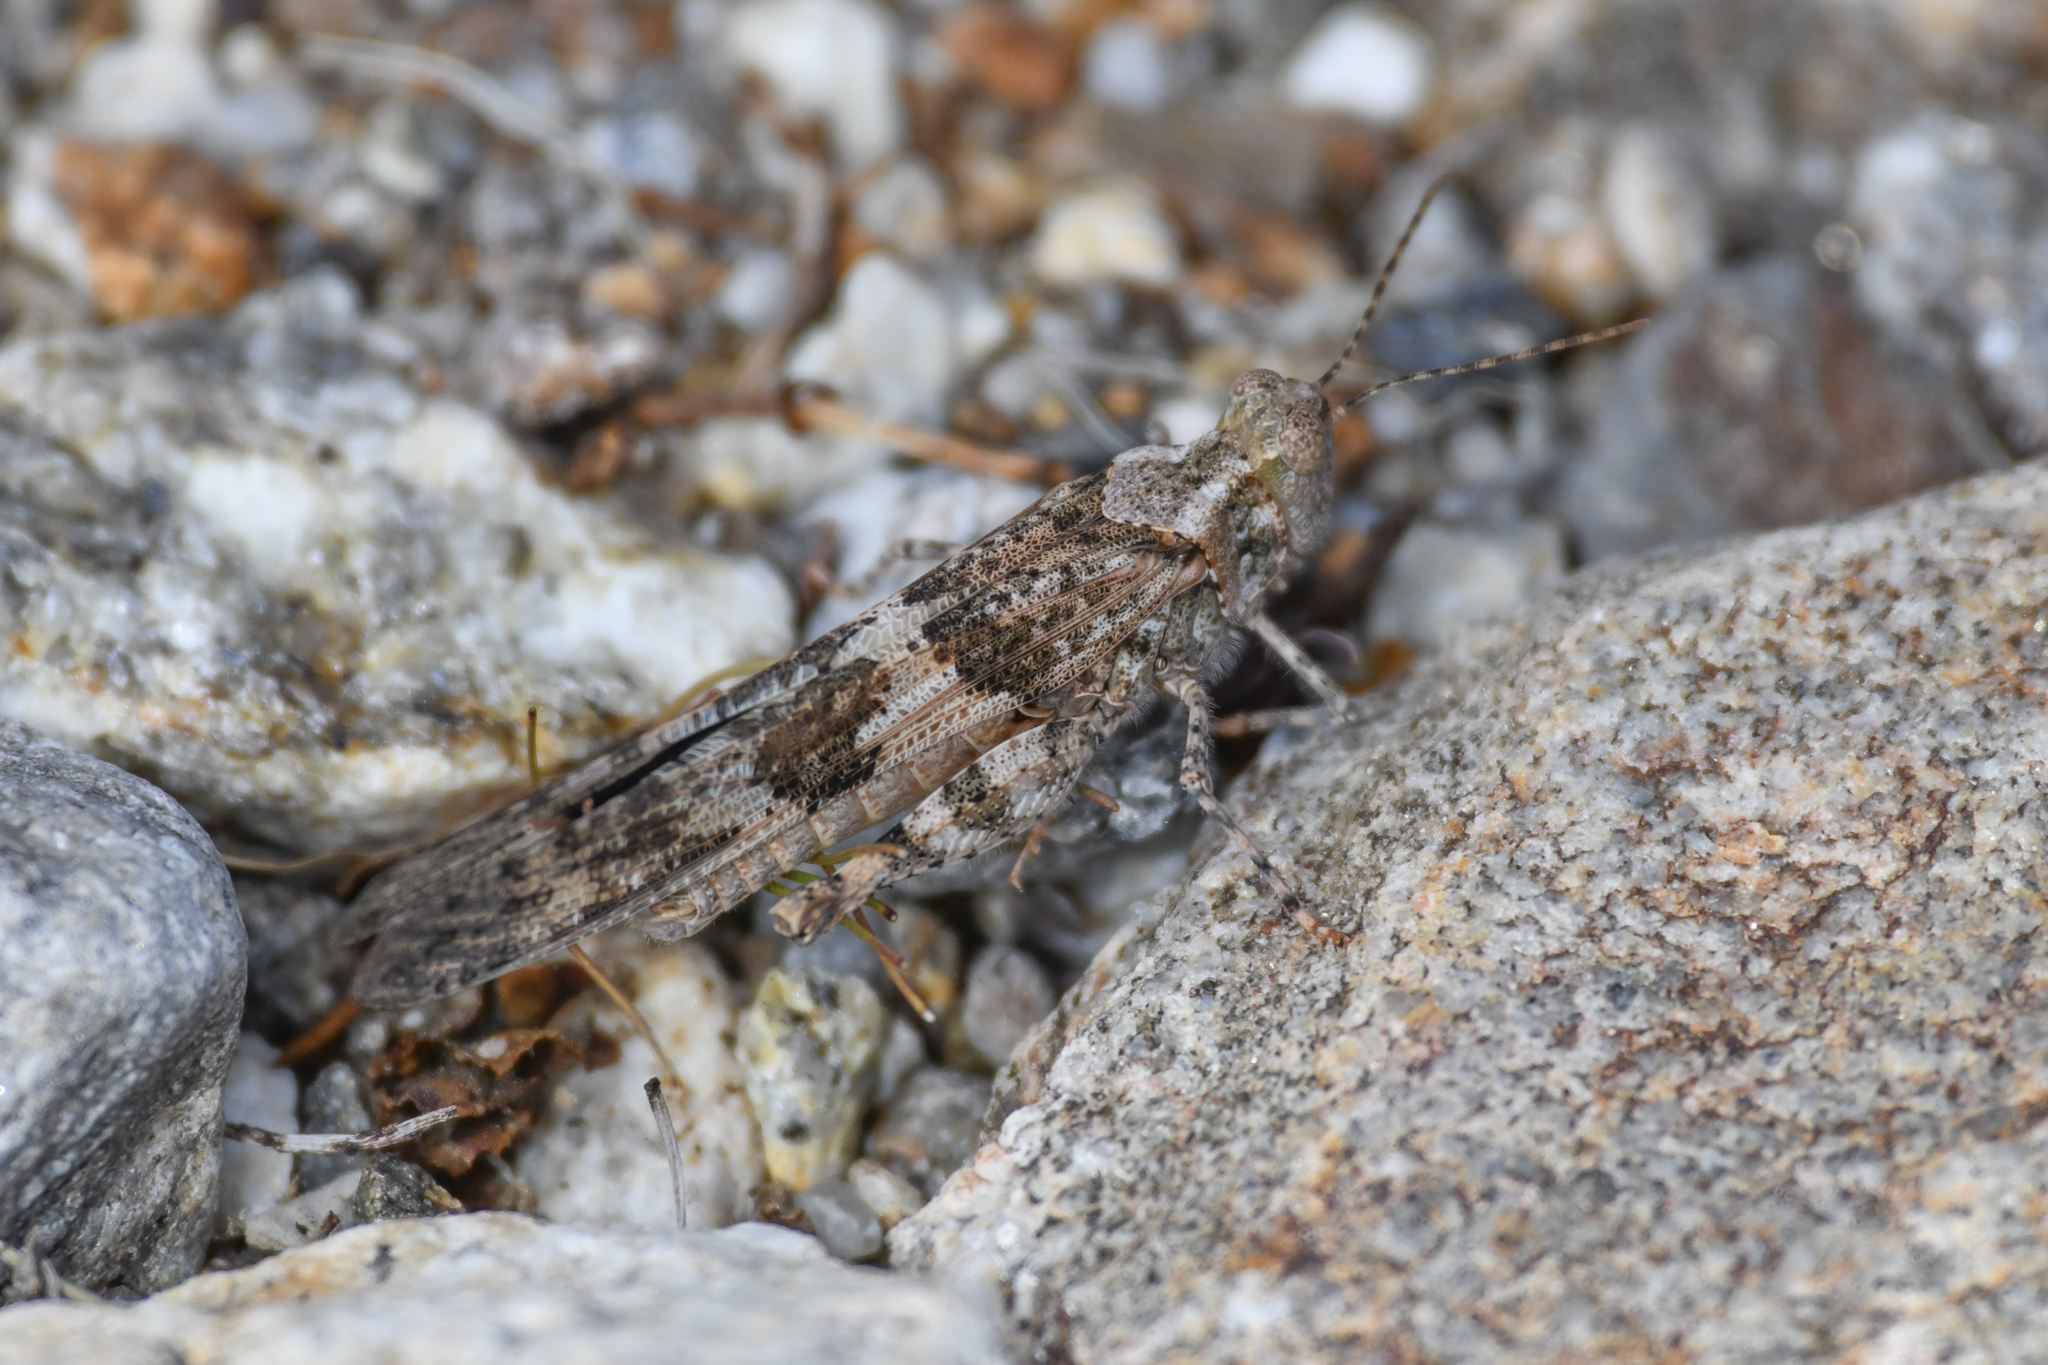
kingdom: Animalia
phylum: Arthropoda
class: Insecta
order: Orthoptera
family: Acrididae
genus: Trimerotropis
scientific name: Trimerotropis pallidipennis
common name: Pallid-winged grasshopper
